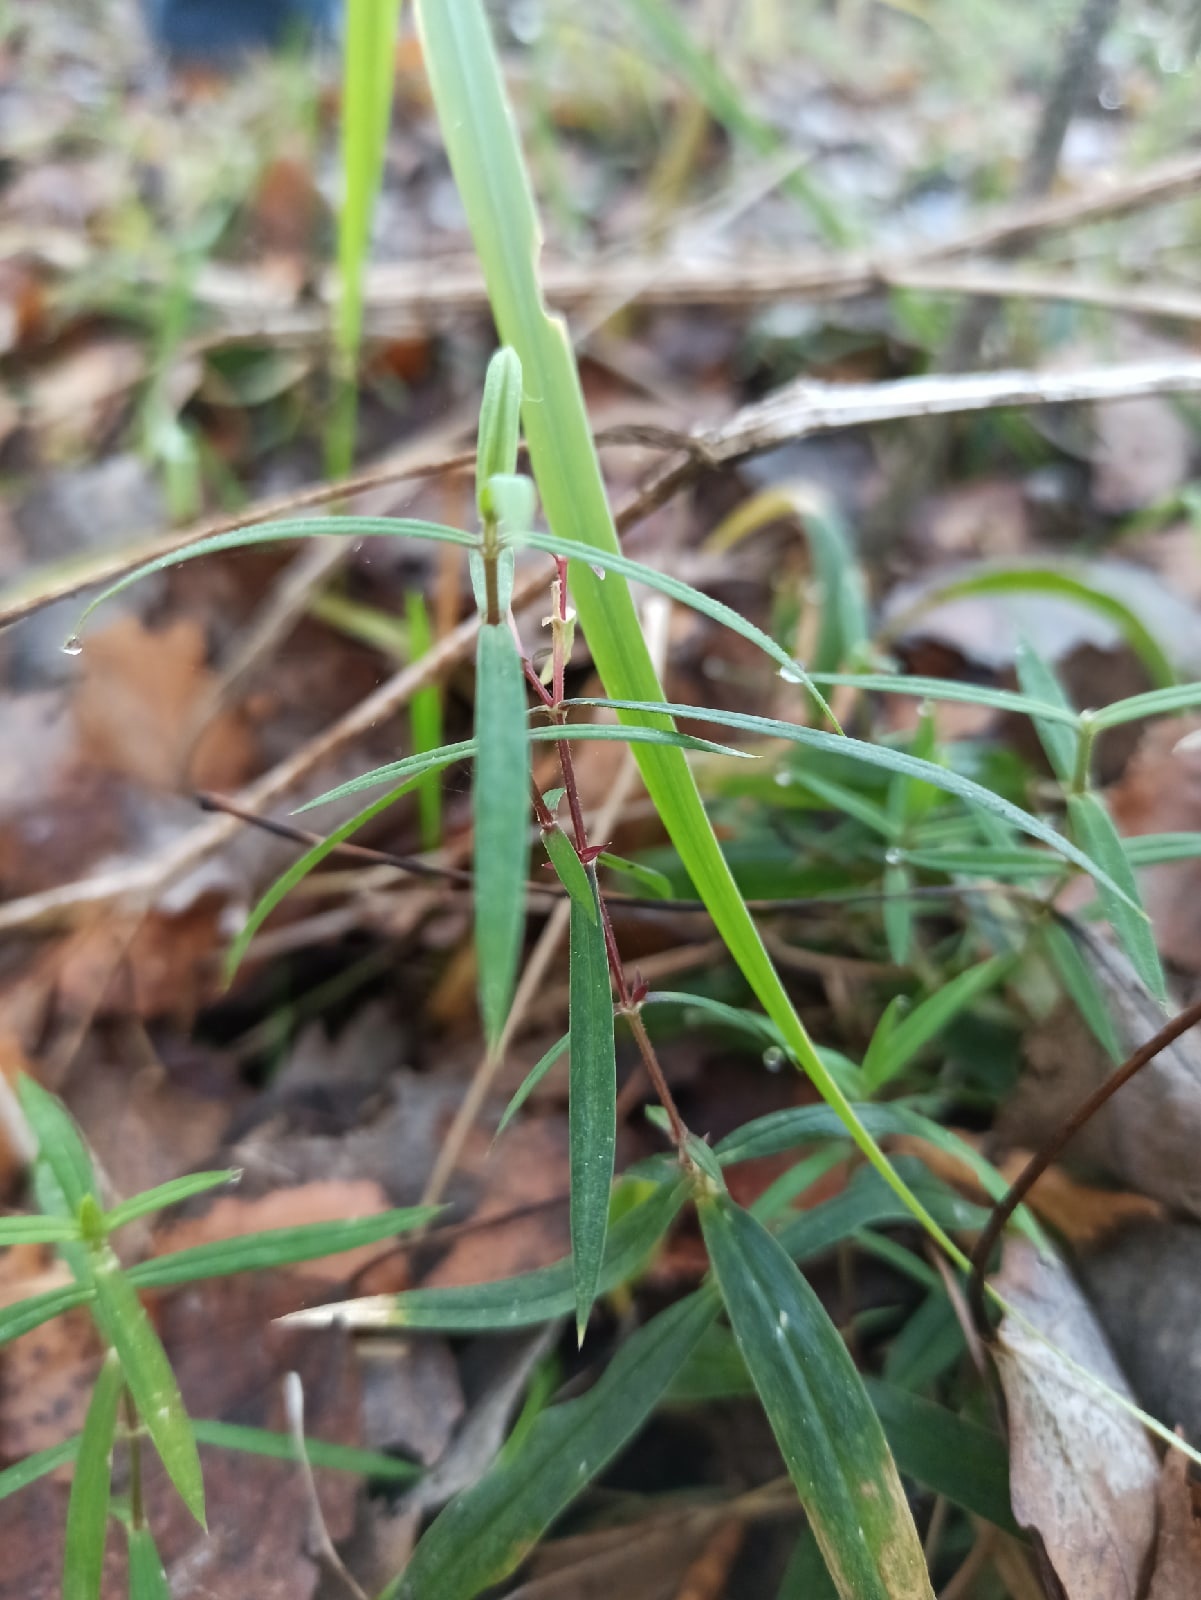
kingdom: Plantae
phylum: Tracheophyta
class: Magnoliopsida
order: Caryophyllales
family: Caryophyllaceae
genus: Rabelera
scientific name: Rabelera holostea
